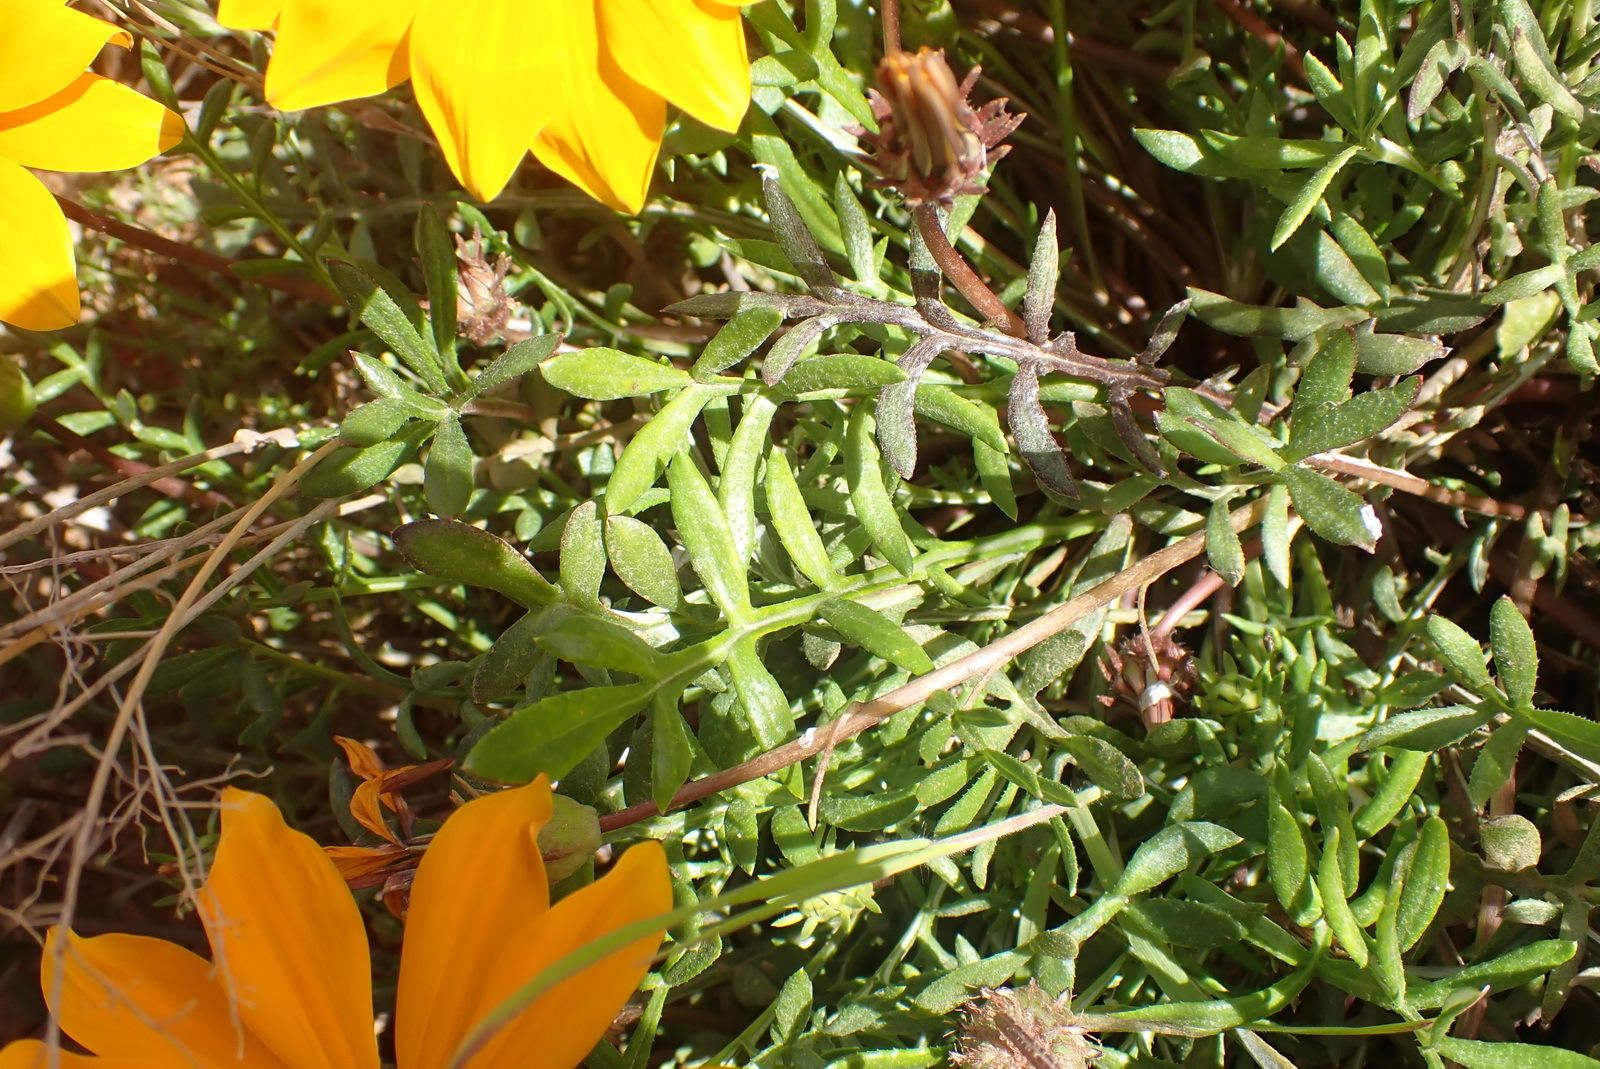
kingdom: Plantae
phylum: Tracheophyta
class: Magnoliopsida
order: Asterales
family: Asteraceae
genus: Gazania
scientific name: Gazania krebsiana
